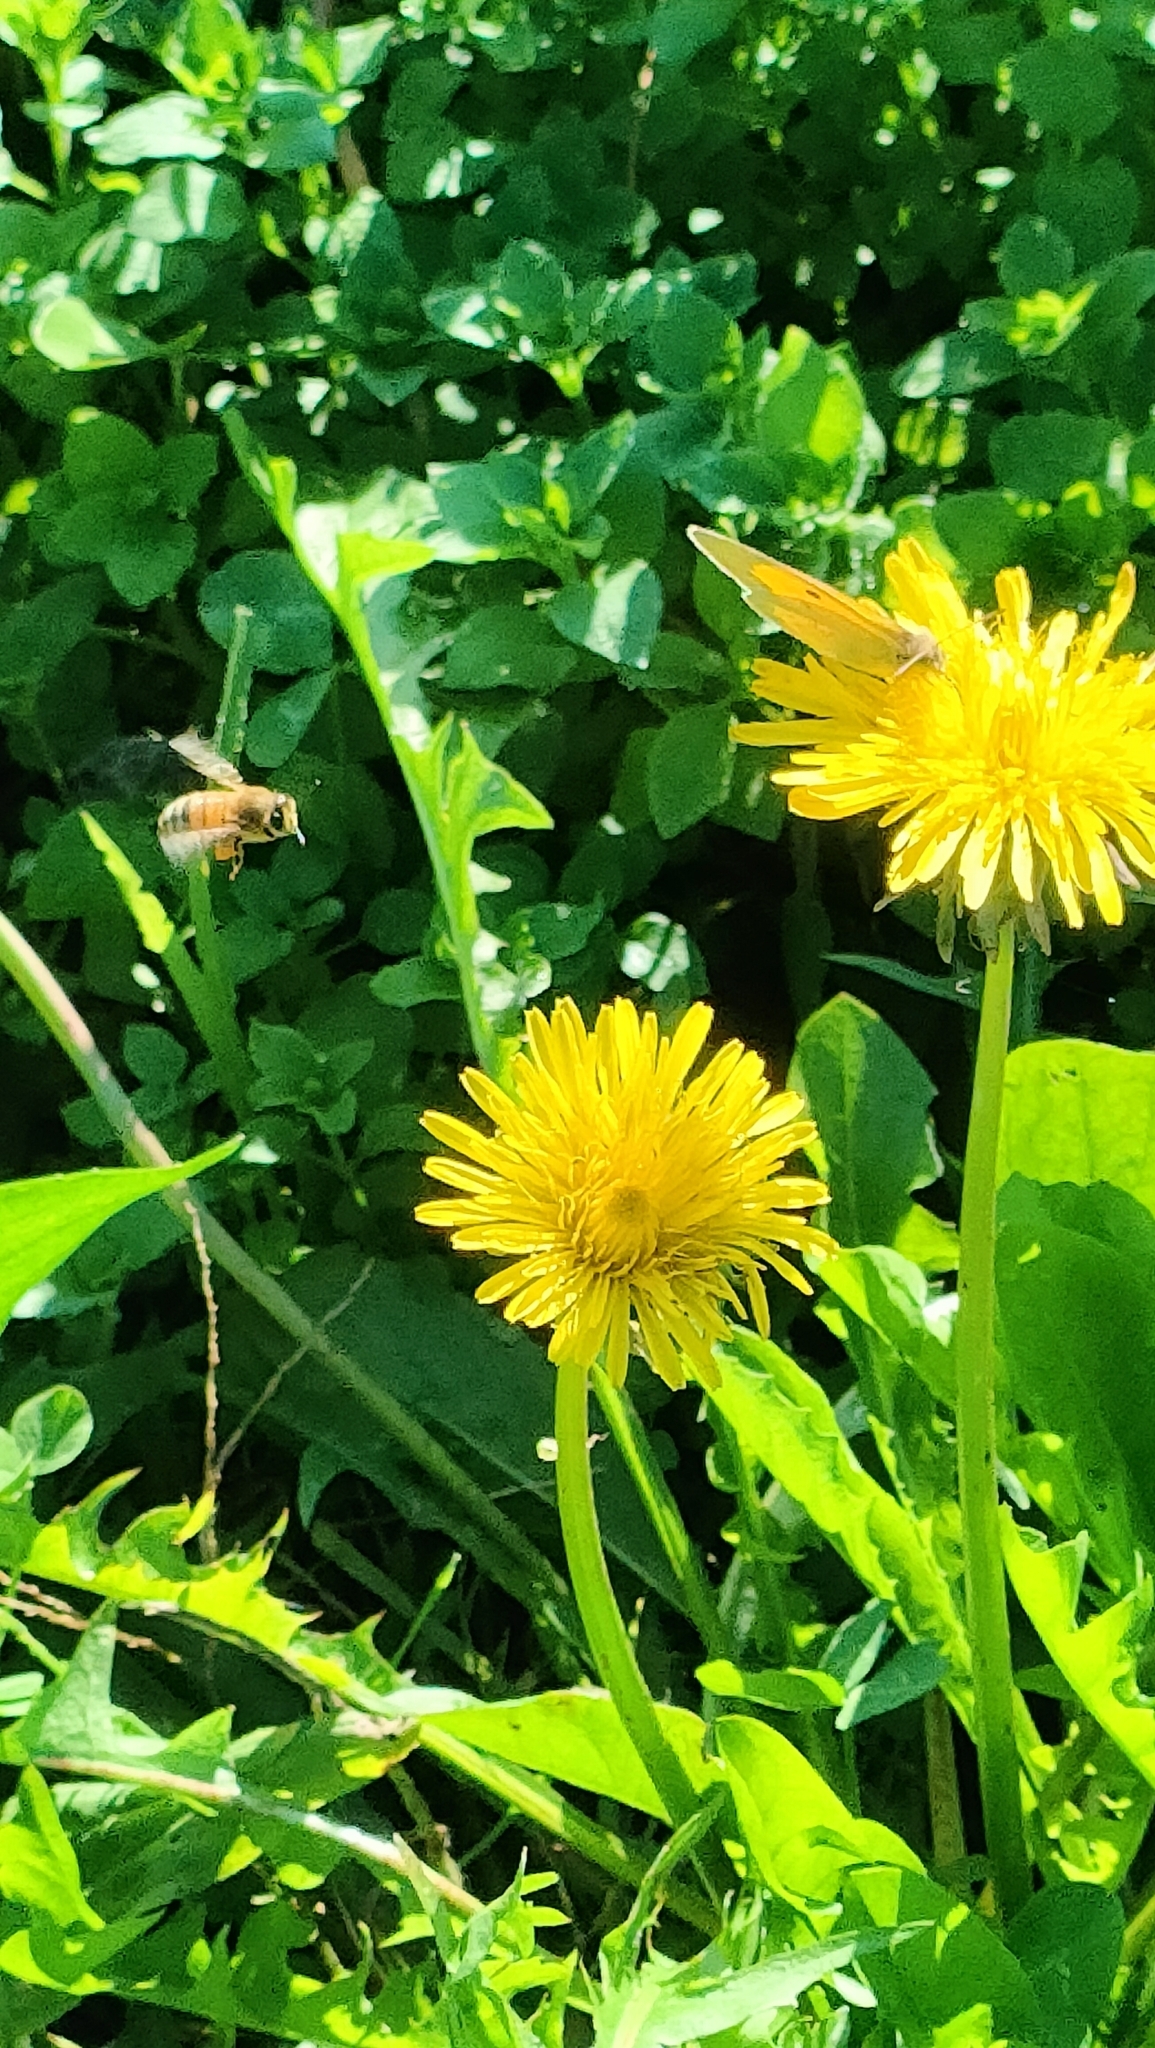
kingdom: Animalia
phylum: Arthropoda
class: Insecta
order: Lepidoptera
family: Pieridae
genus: Colias
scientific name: Colias croceus
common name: Clouded yellow
